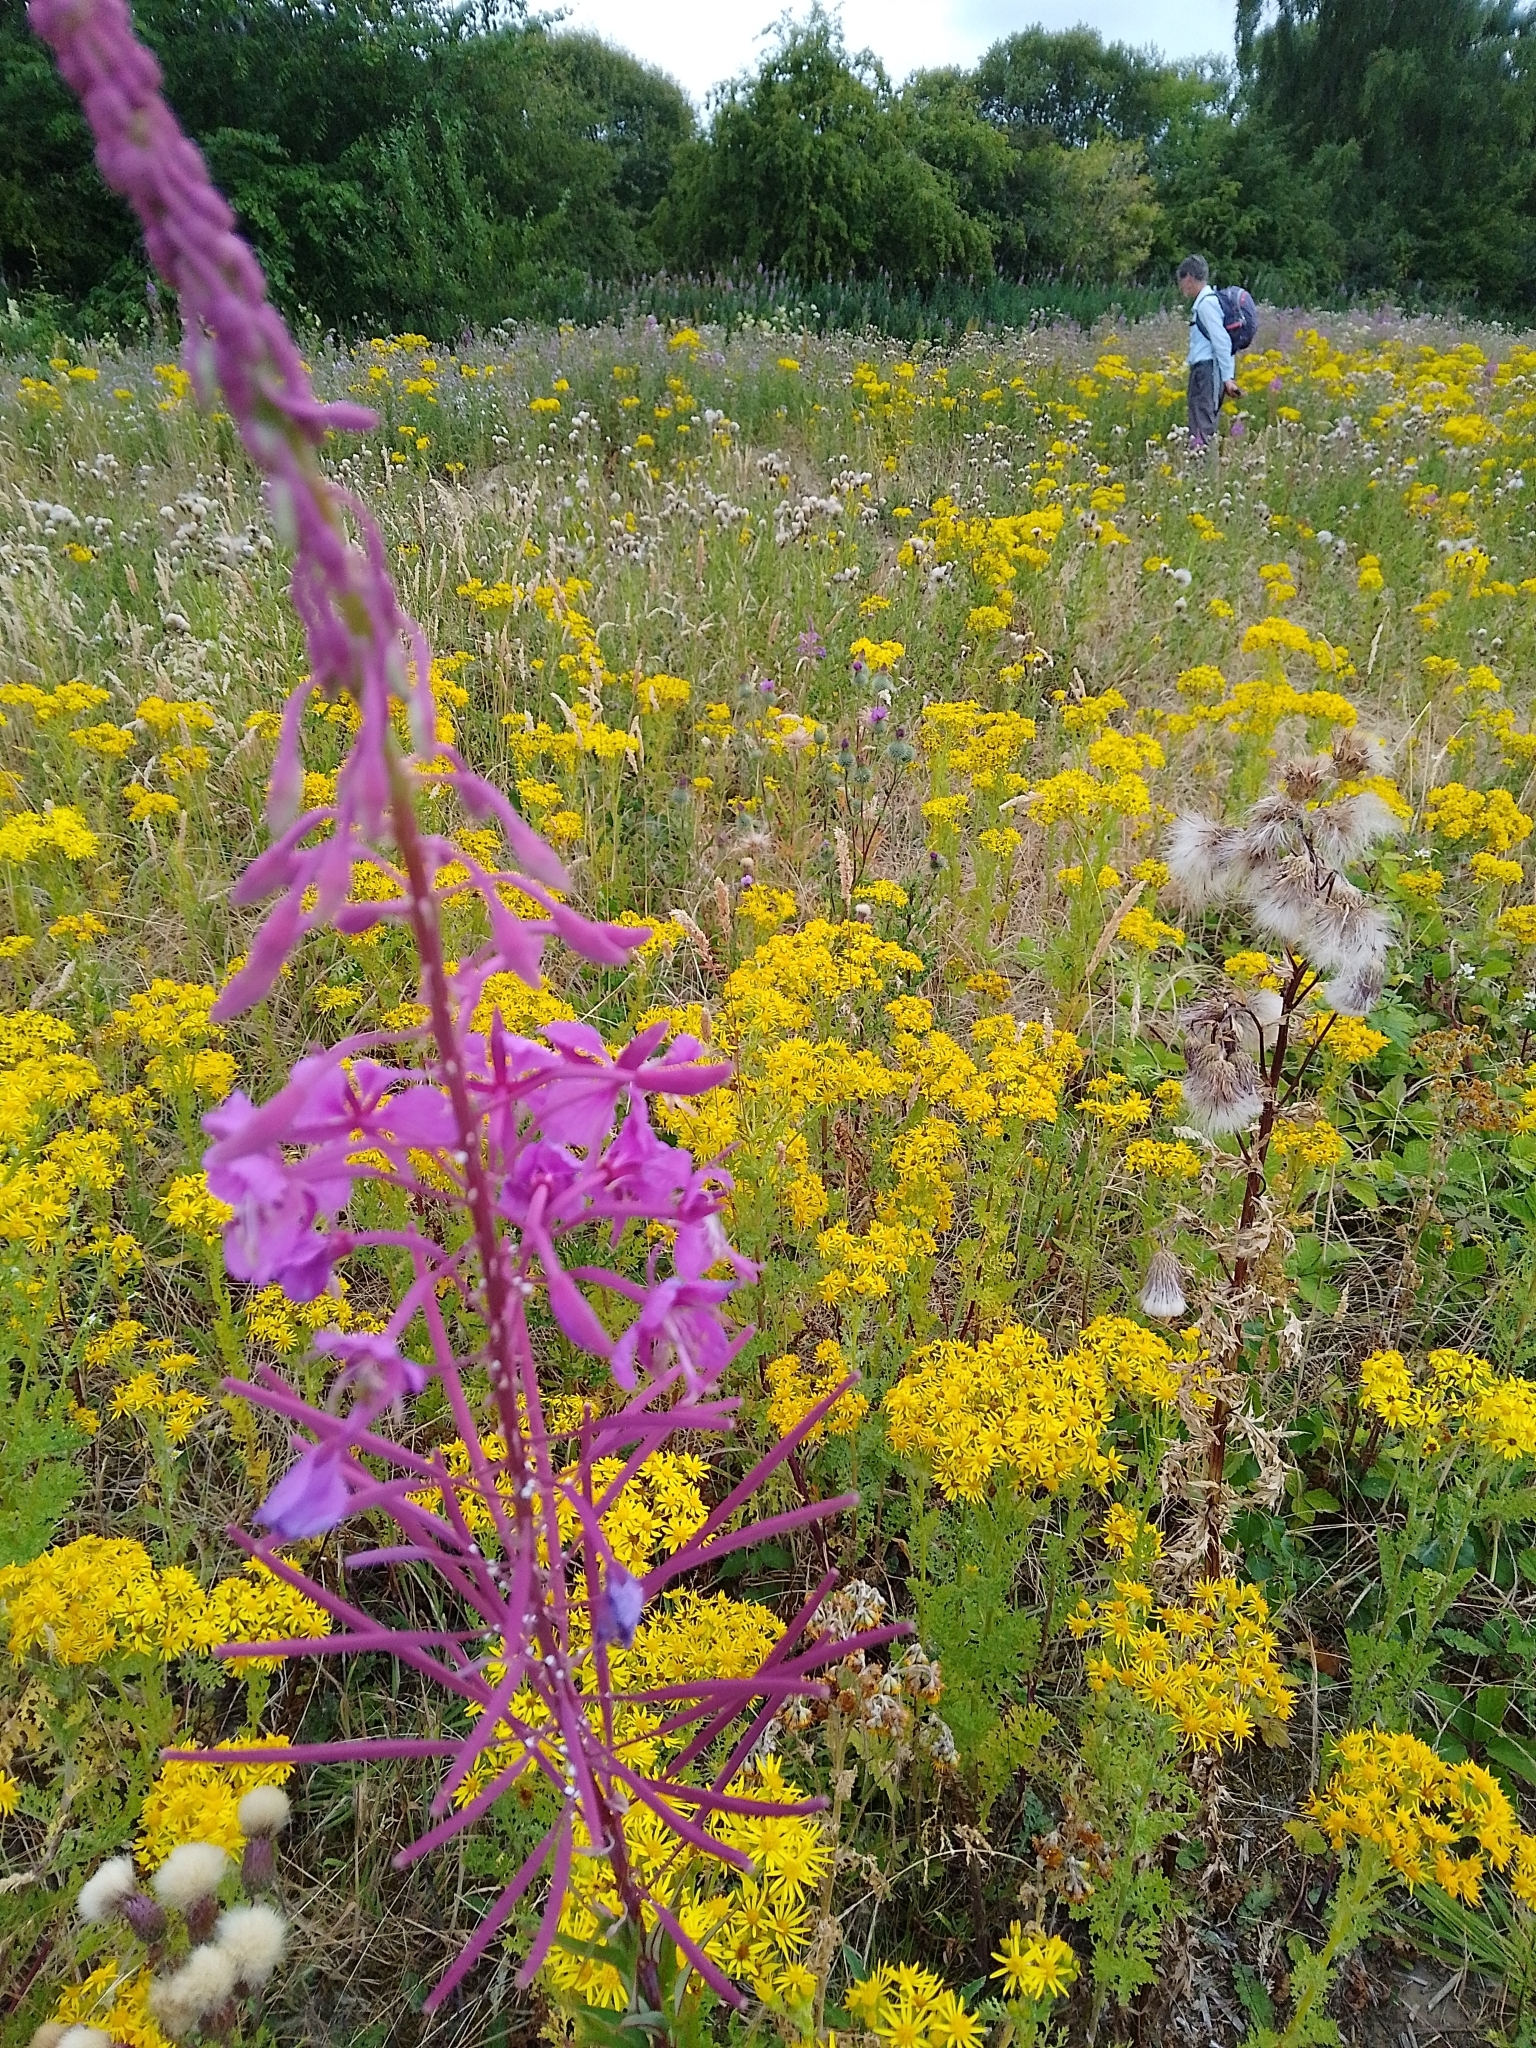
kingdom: Plantae
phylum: Tracheophyta
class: Magnoliopsida
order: Myrtales
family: Onagraceae
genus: Chamaenerion
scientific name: Chamaenerion angustifolium
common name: Fireweed
